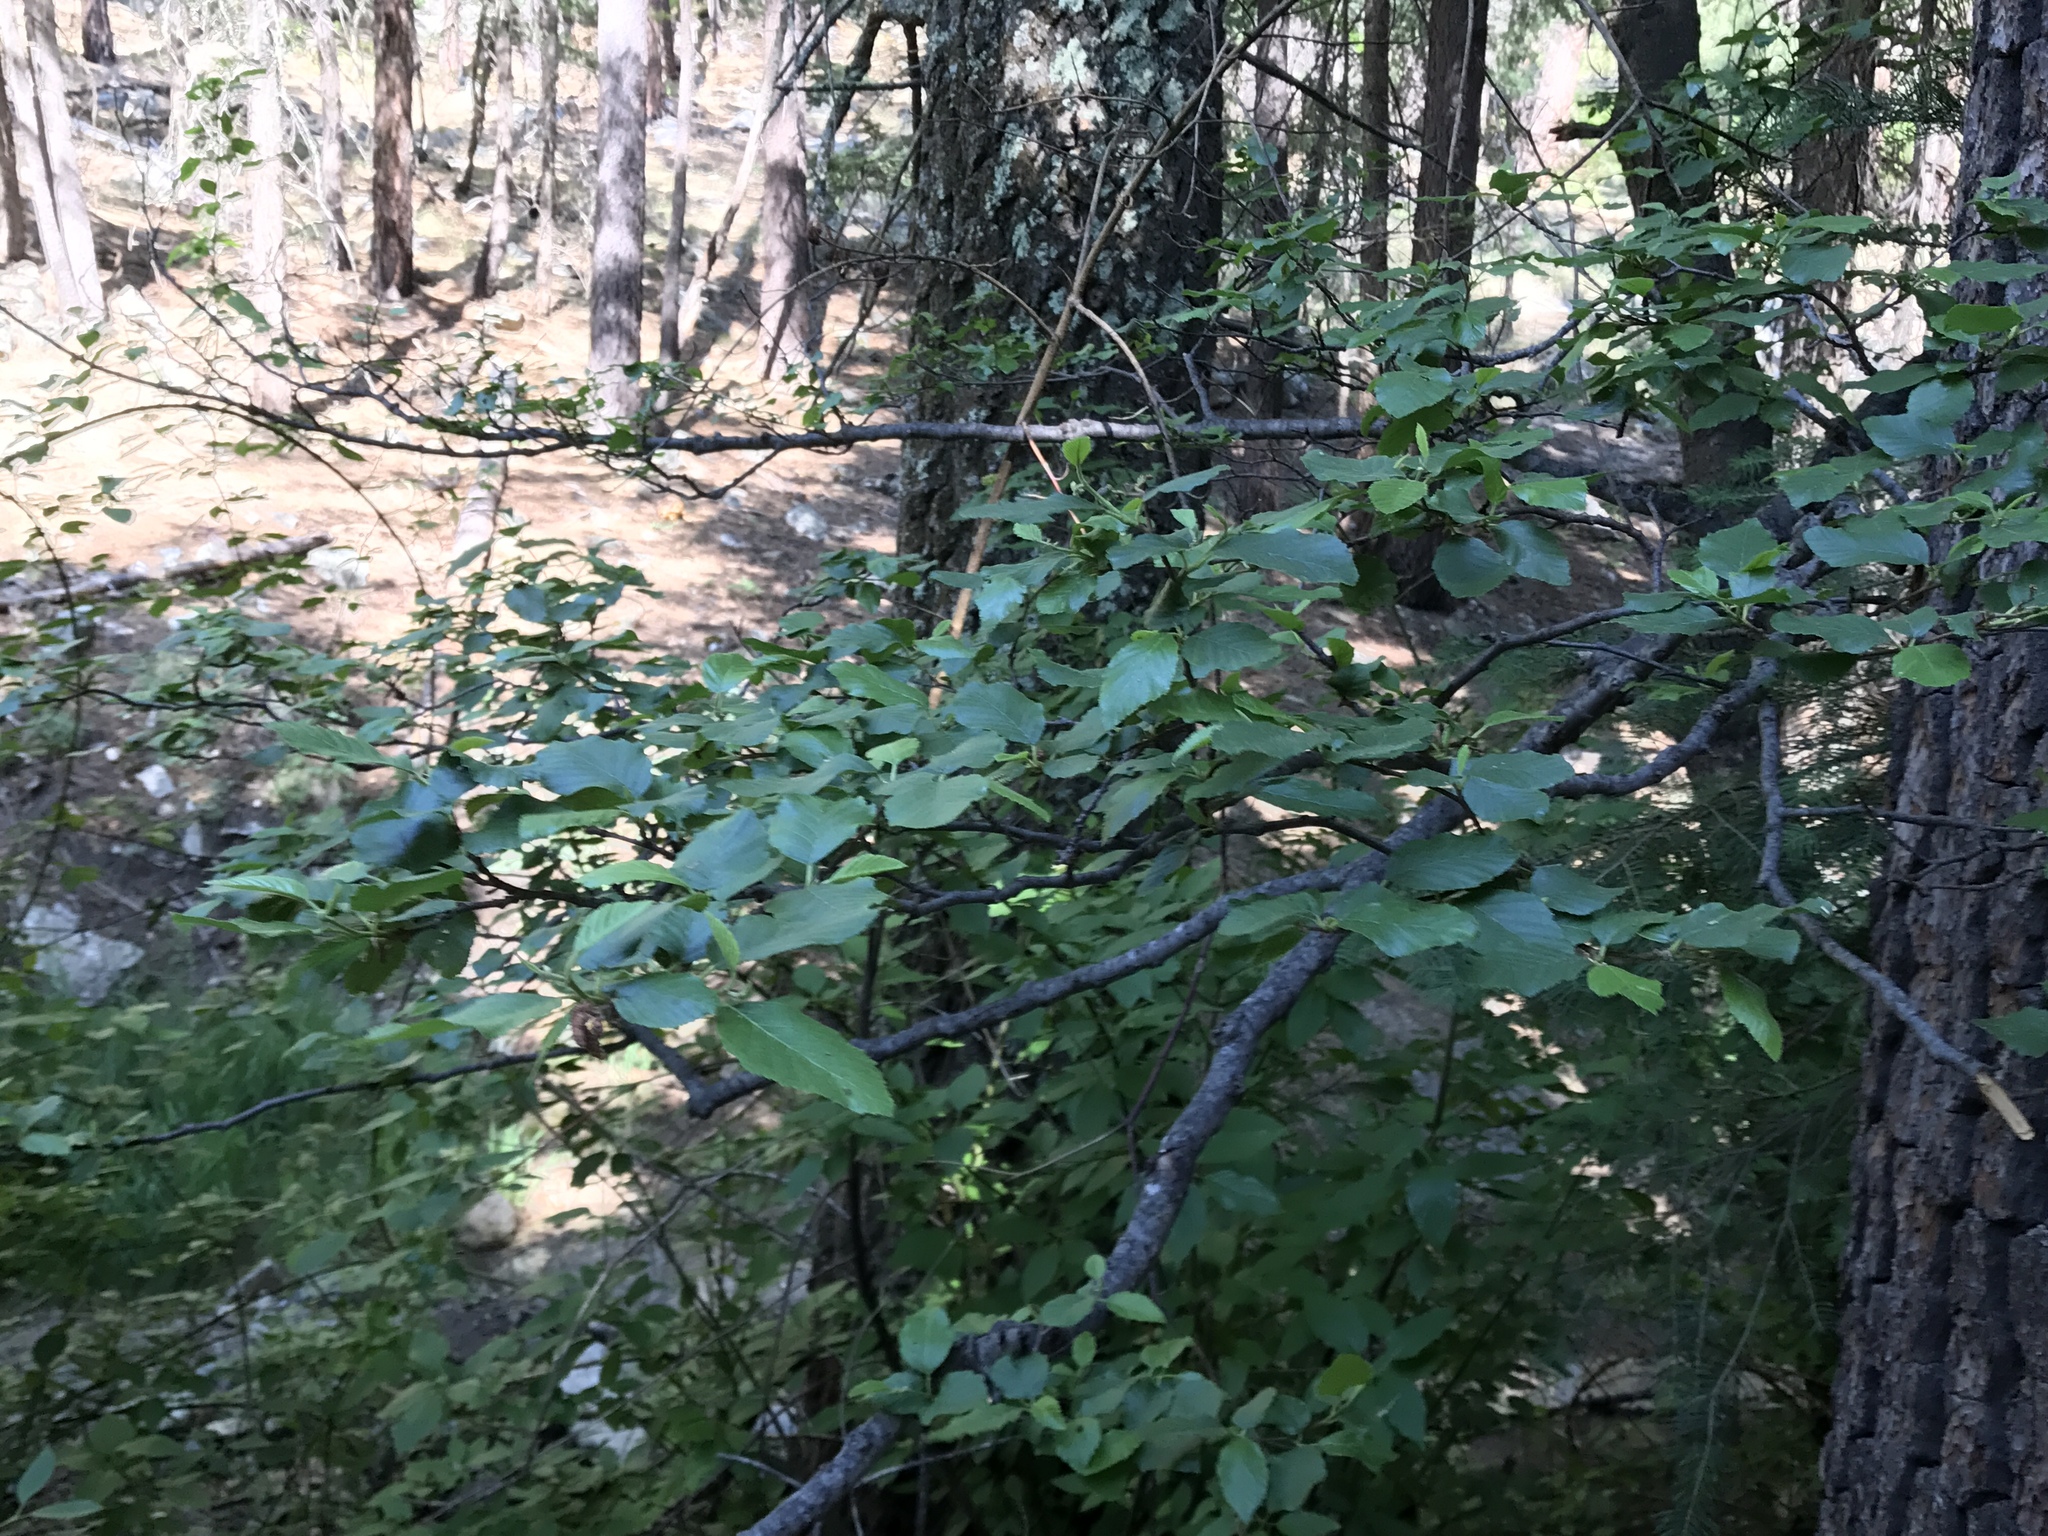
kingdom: Plantae
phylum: Tracheophyta
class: Magnoliopsida
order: Fagales
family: Betulaceae
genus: Alnus
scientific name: Alnus oblongifolia
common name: Arizona alder
